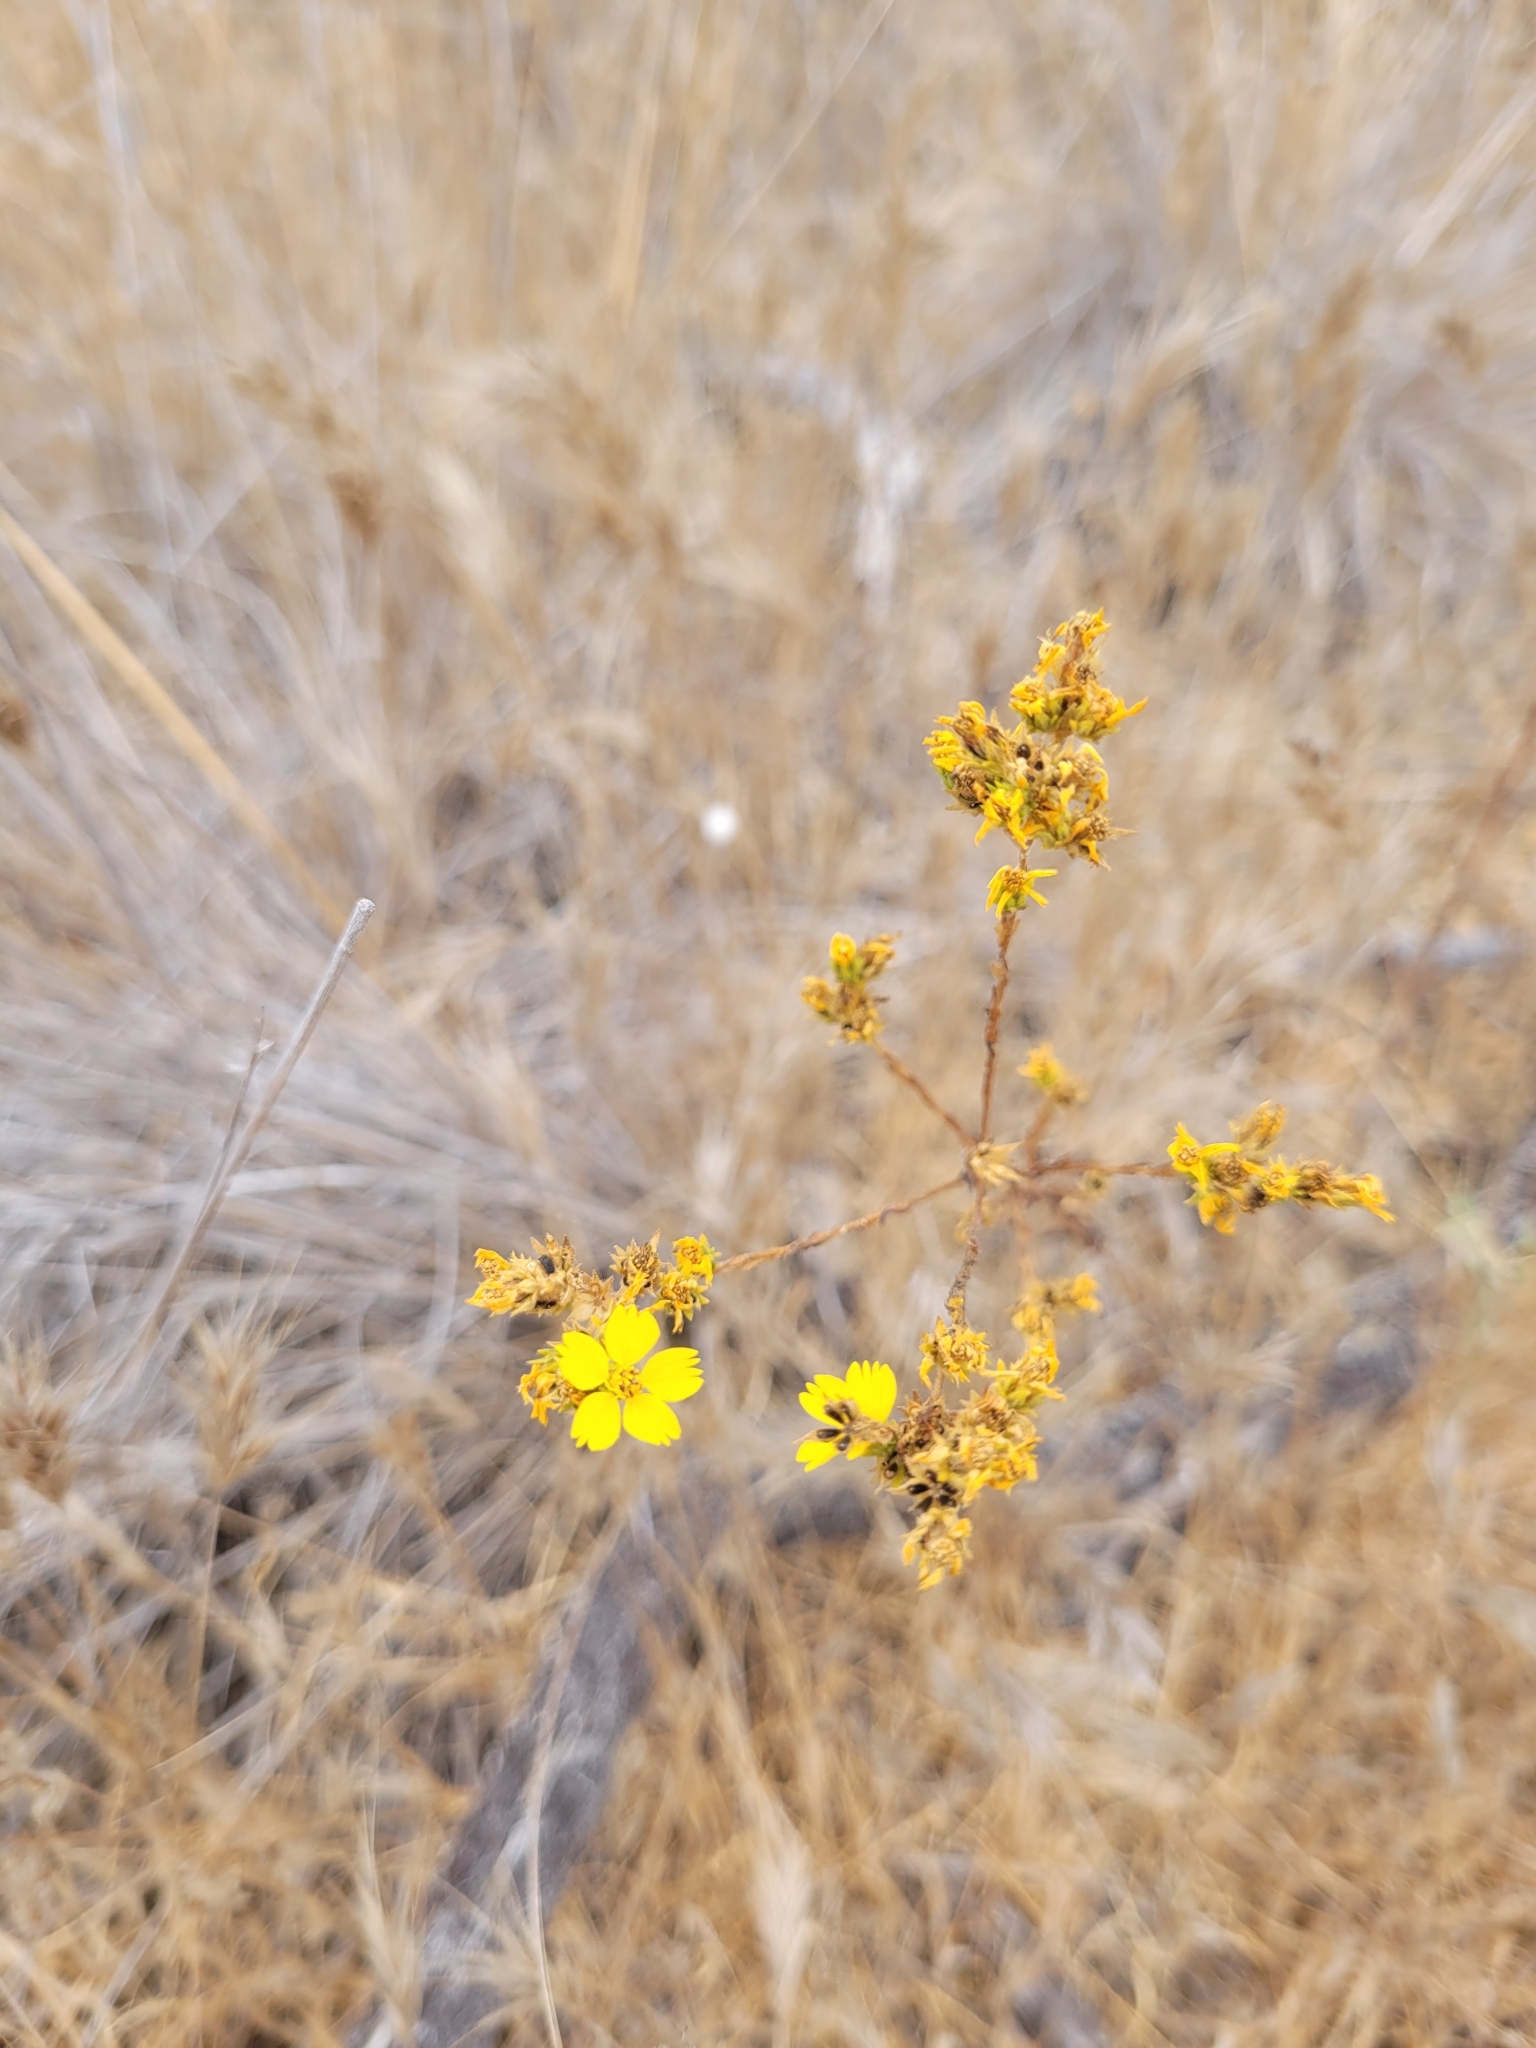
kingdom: Plantae
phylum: Tracheophyta
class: Magnoliopsida
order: Asterales
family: Asteraceae
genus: Deinandra
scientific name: Deinandra fasciculata
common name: Clustered tarweed
